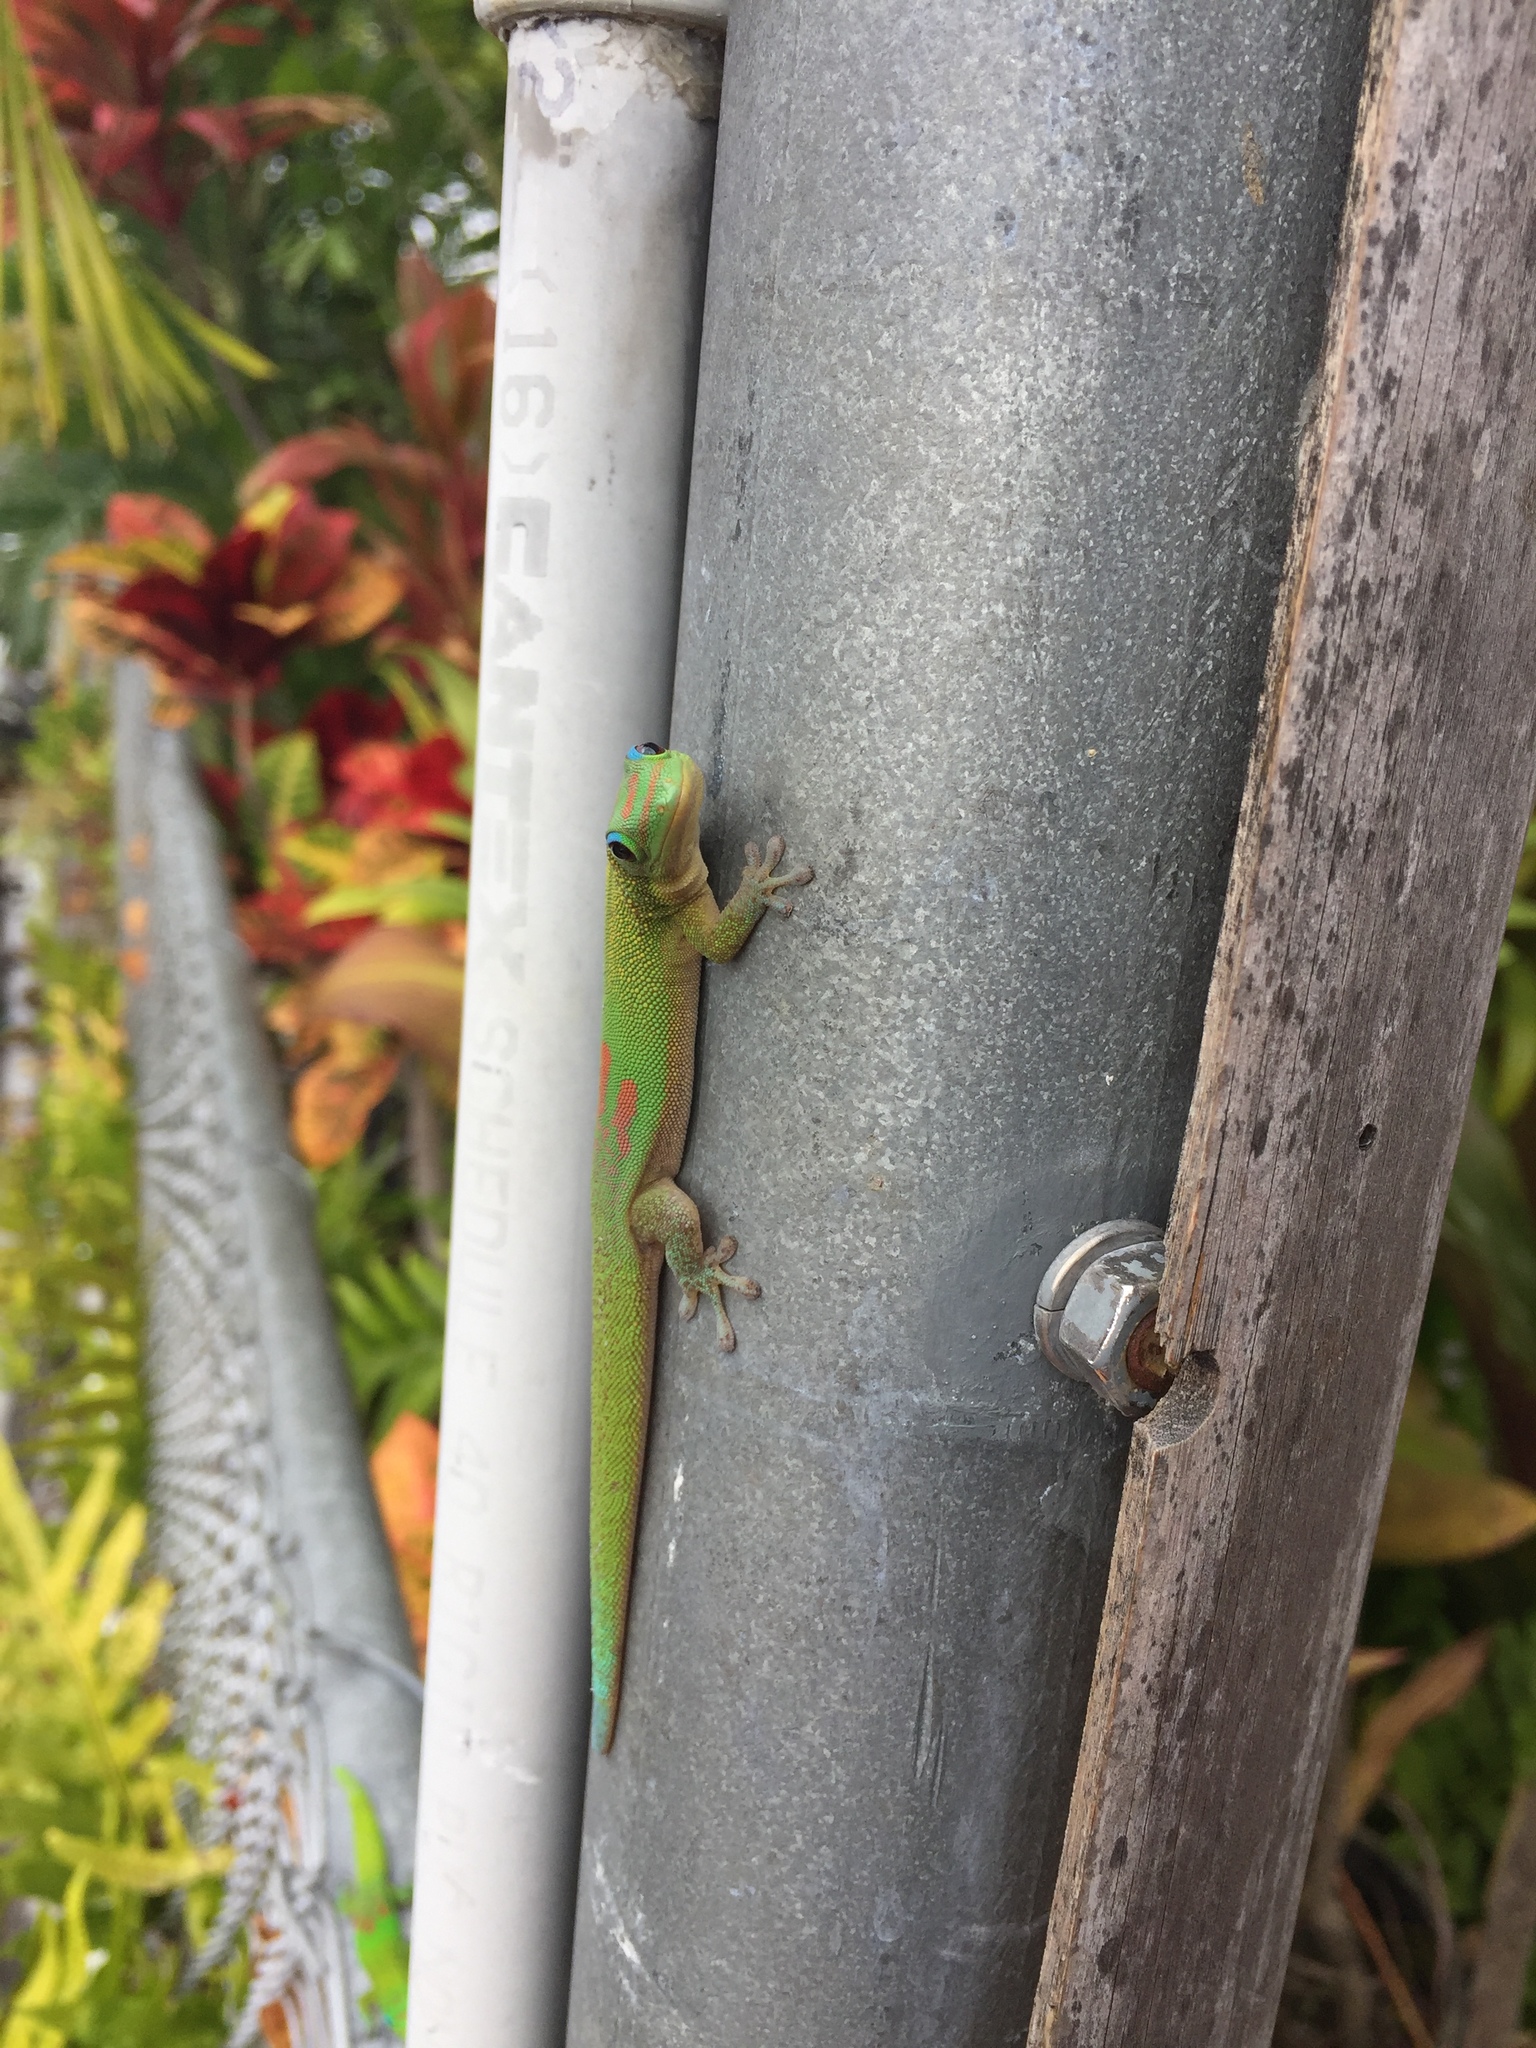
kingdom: Animalia
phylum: Chordata
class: Squamata
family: Gekkonidae
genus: Phelsuma
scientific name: Phelsuma laticauda
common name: Gold dust day gecko
